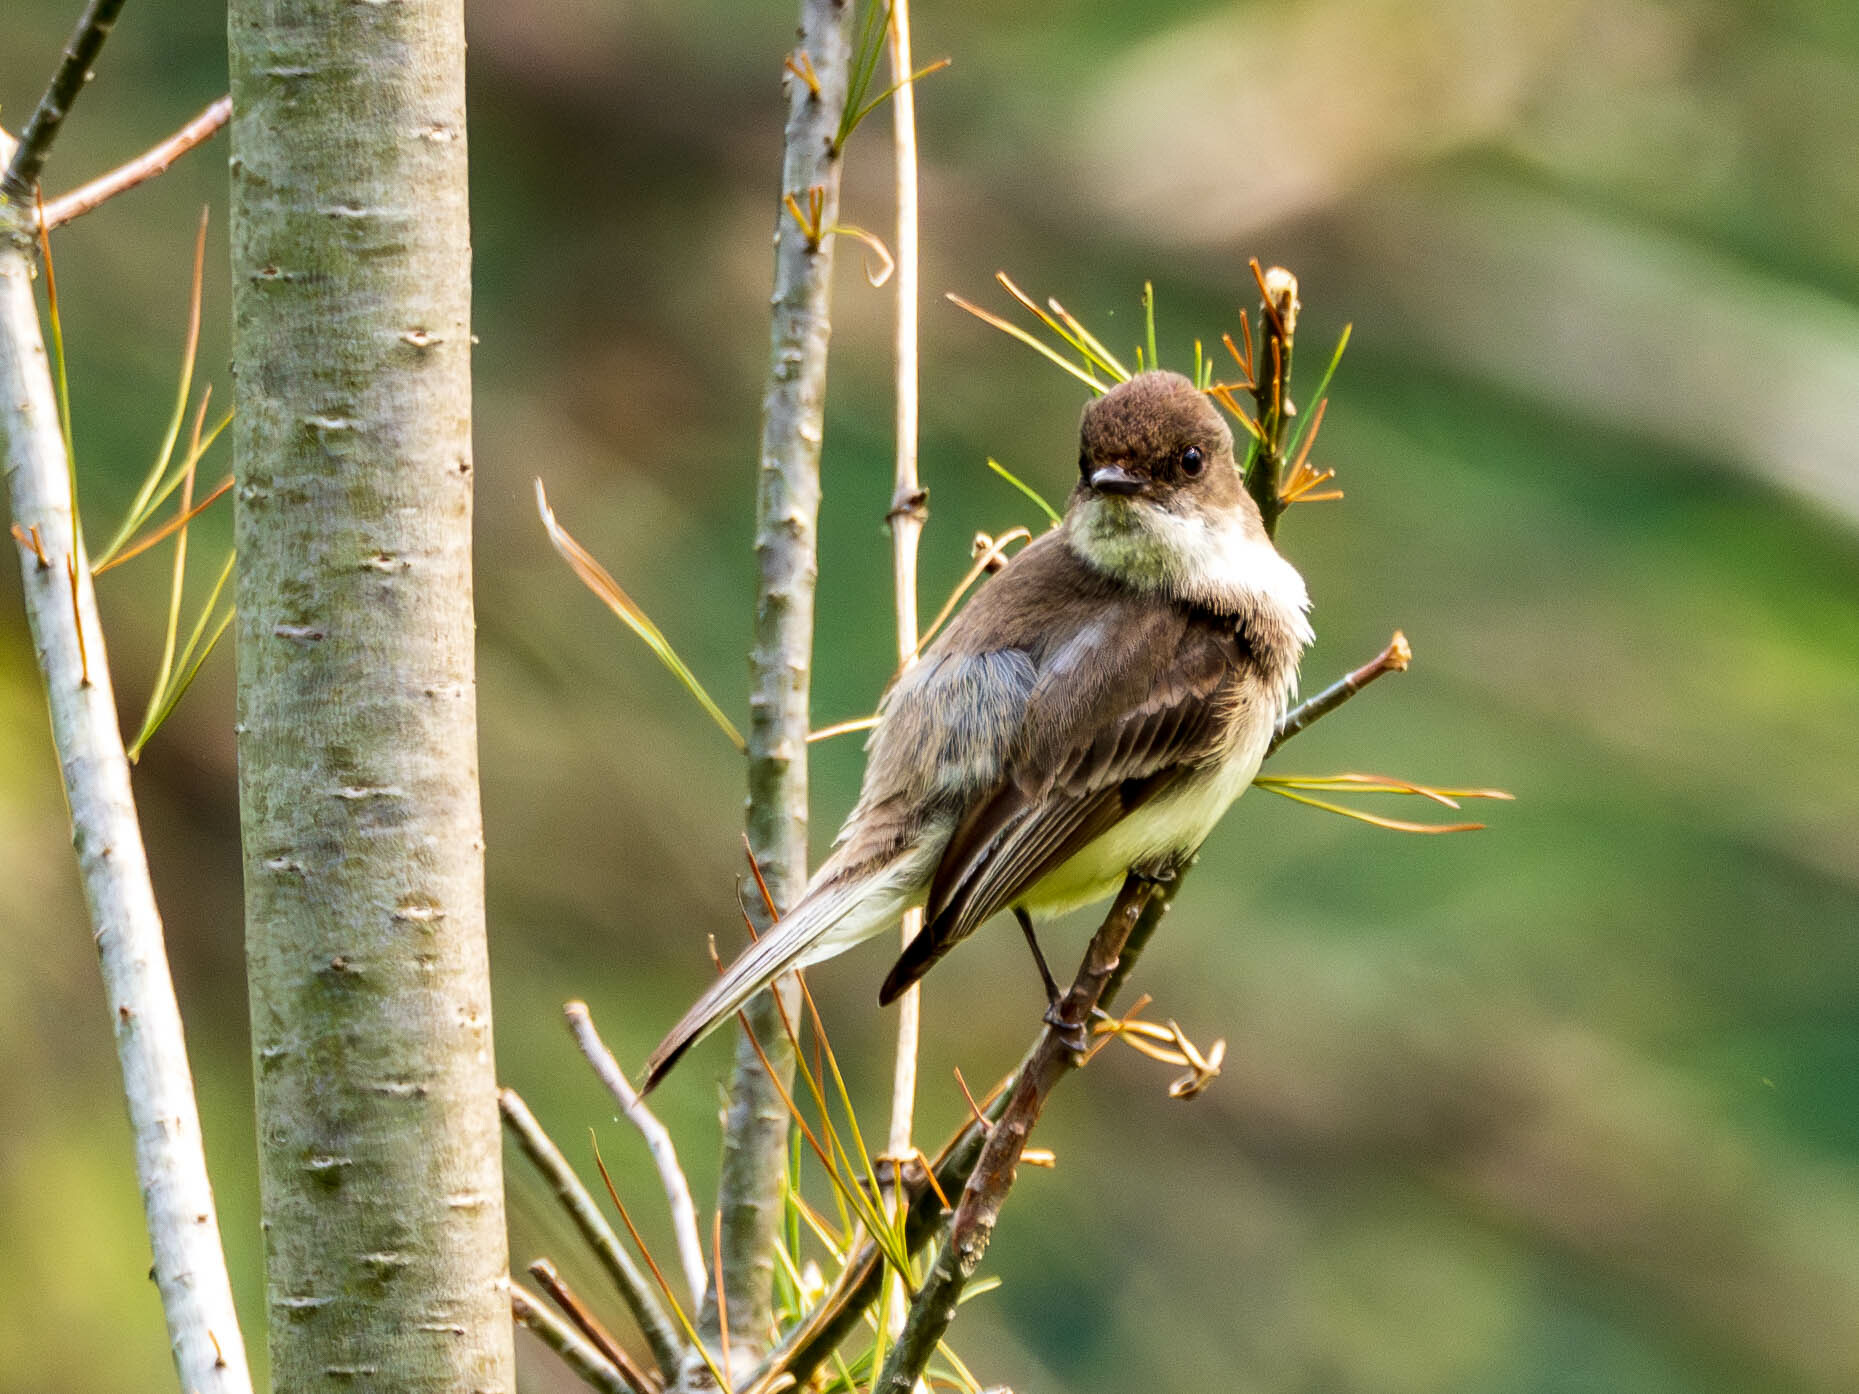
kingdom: Animalia
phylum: Chordata
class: Aves
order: Passeriformes
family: Tyrannidae
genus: Sayornis
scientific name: Sayornis phoebe
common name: Eastern phoebe
